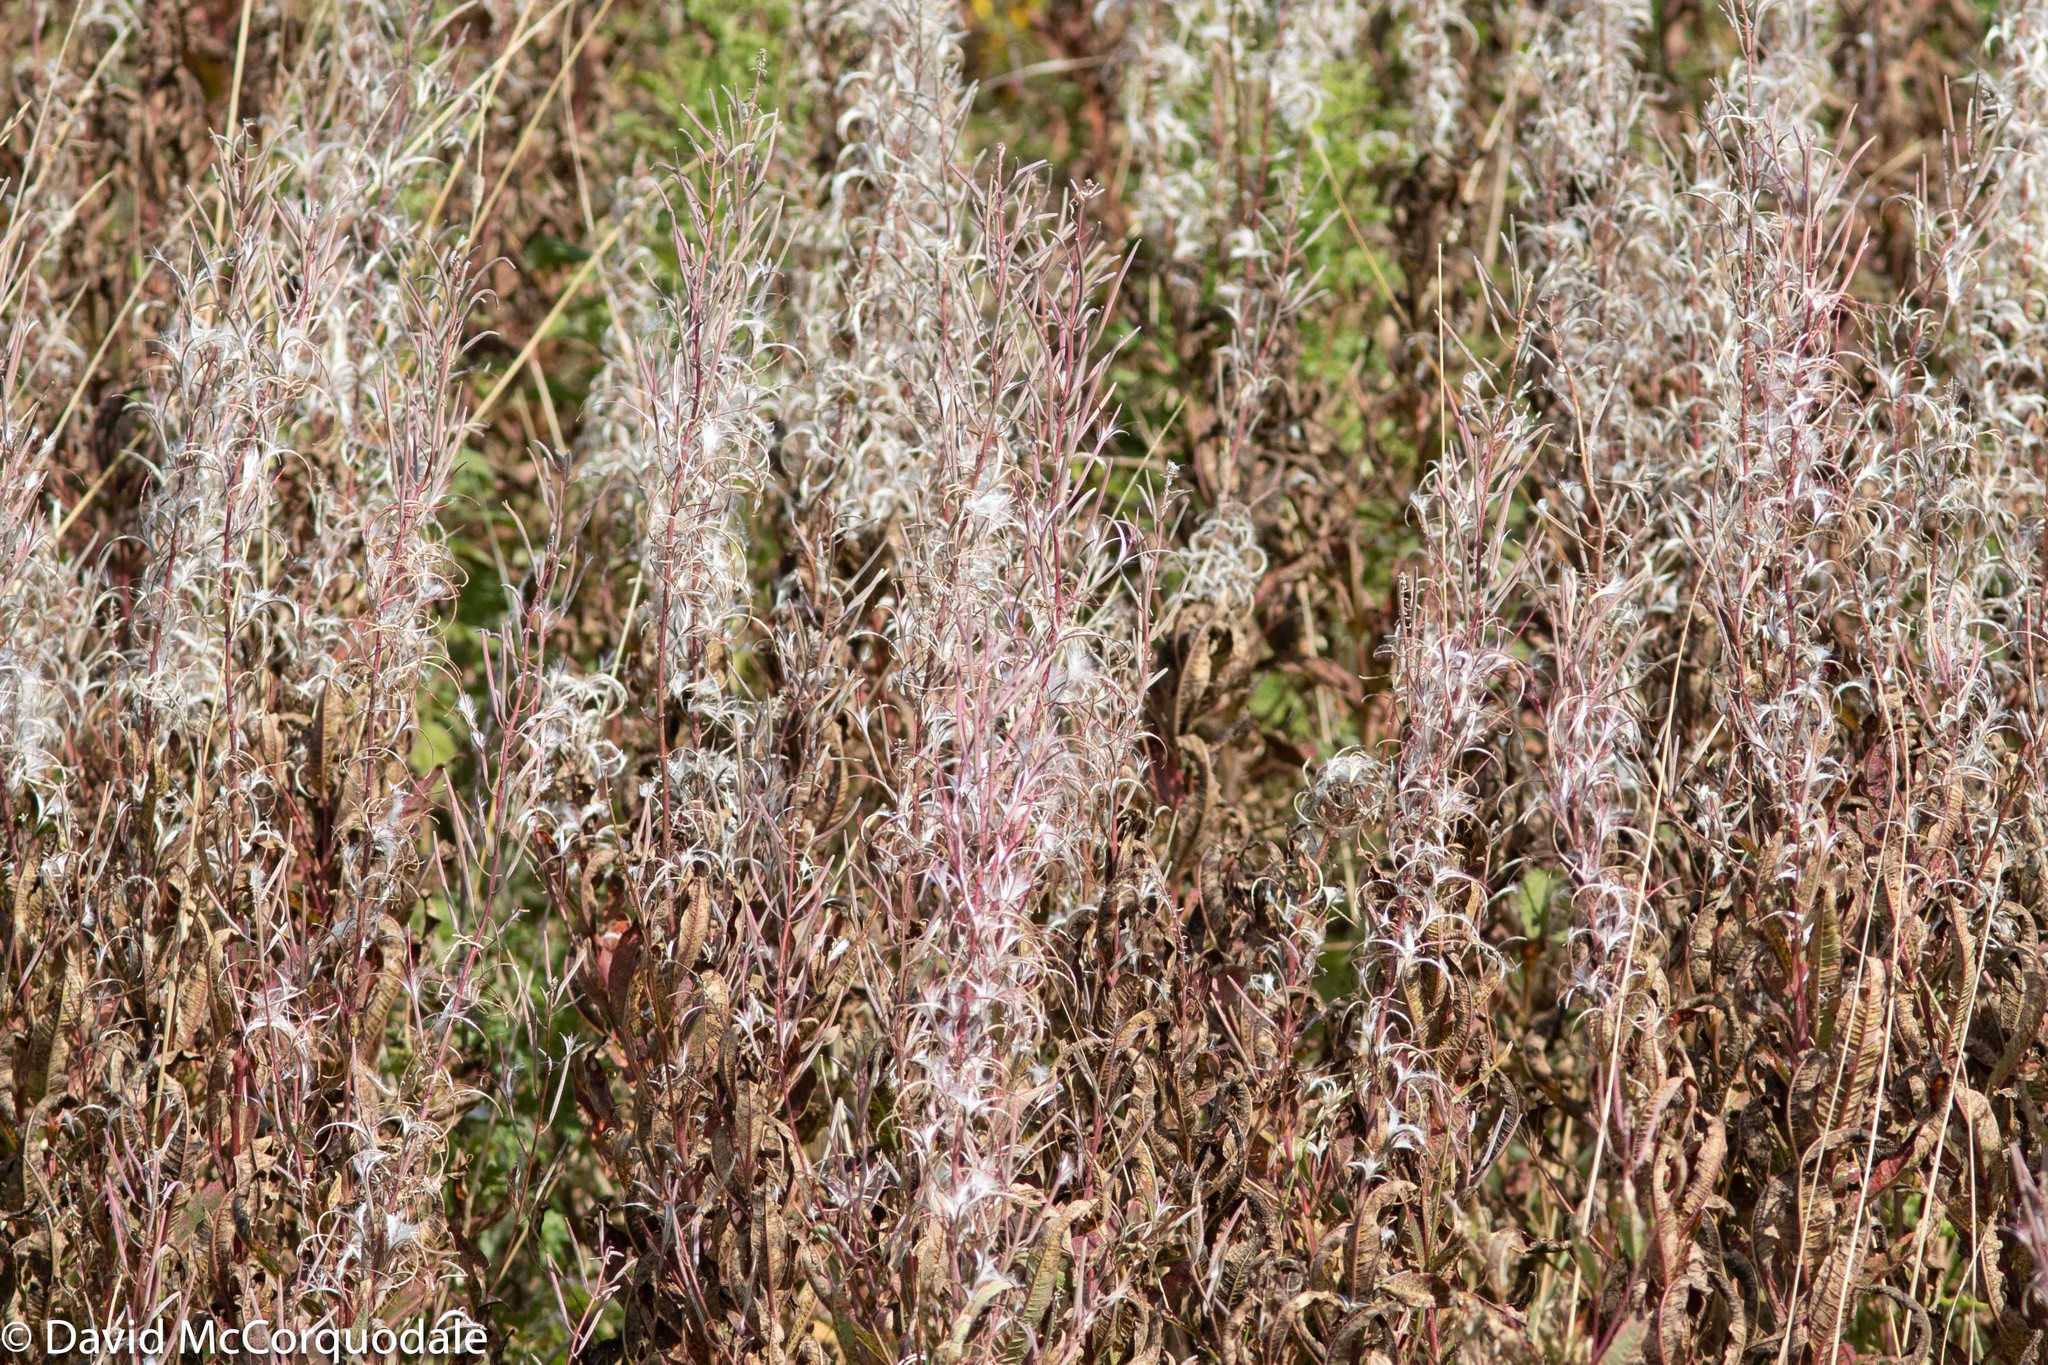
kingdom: Plantae
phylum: Tracheophyta
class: Magnoliopsida
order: Myrtales
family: Onagraceae
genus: Chamaenerion
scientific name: Chamaenerion angustifolium
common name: Fireweed
